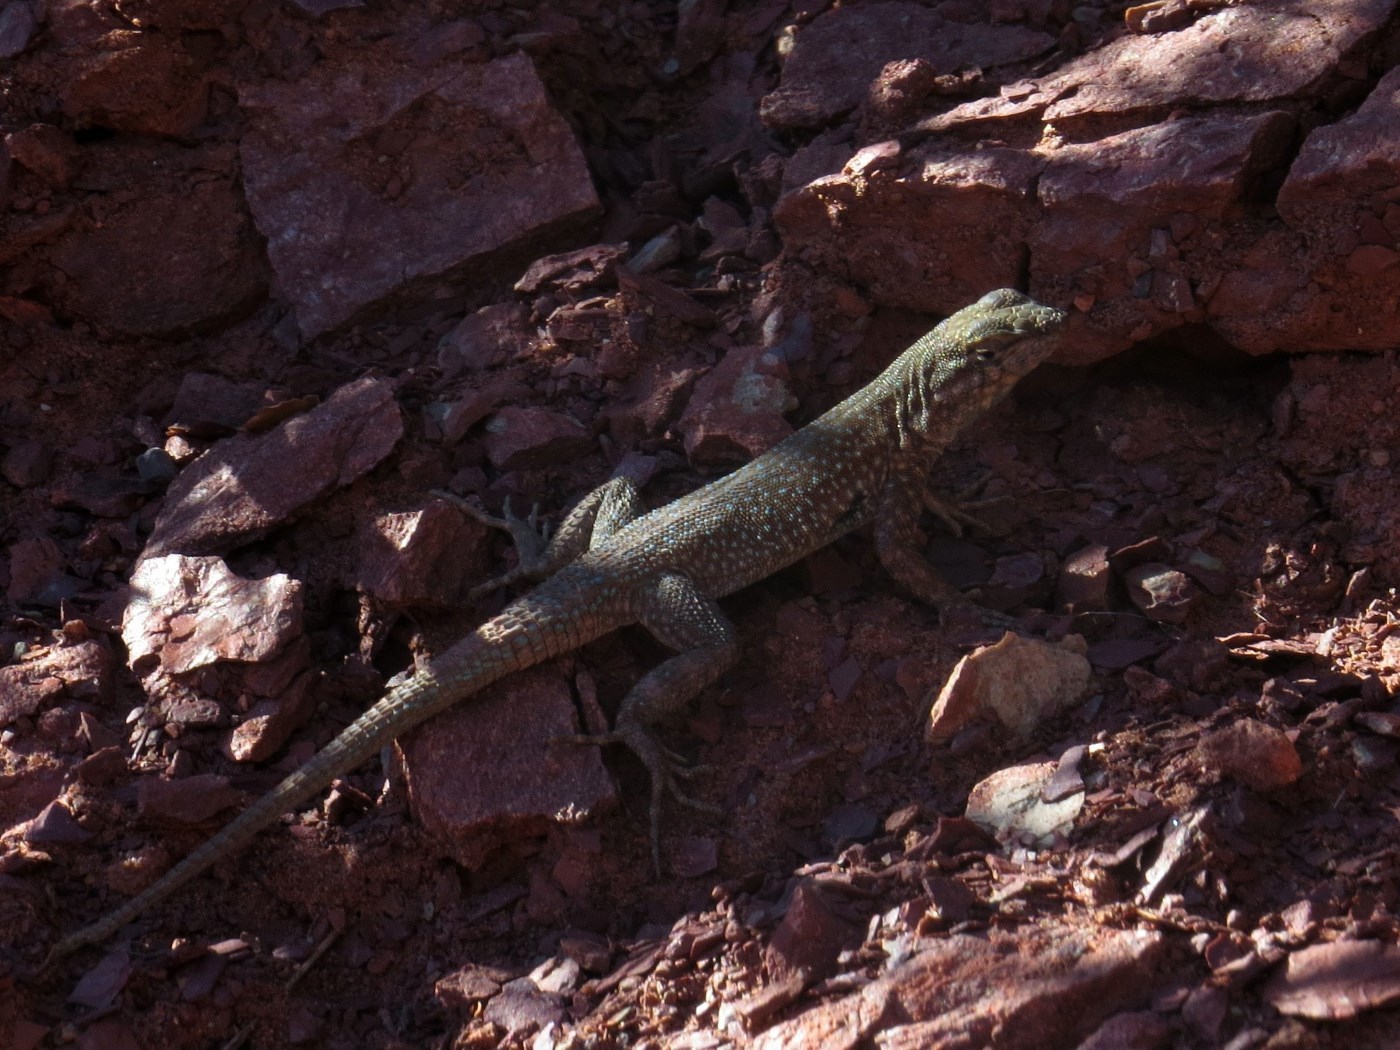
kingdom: Animalia
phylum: Chordata
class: Squamata
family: Phrynosomatidae
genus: Uta
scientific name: Uta stansburiana
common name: Side-blotched lizard
